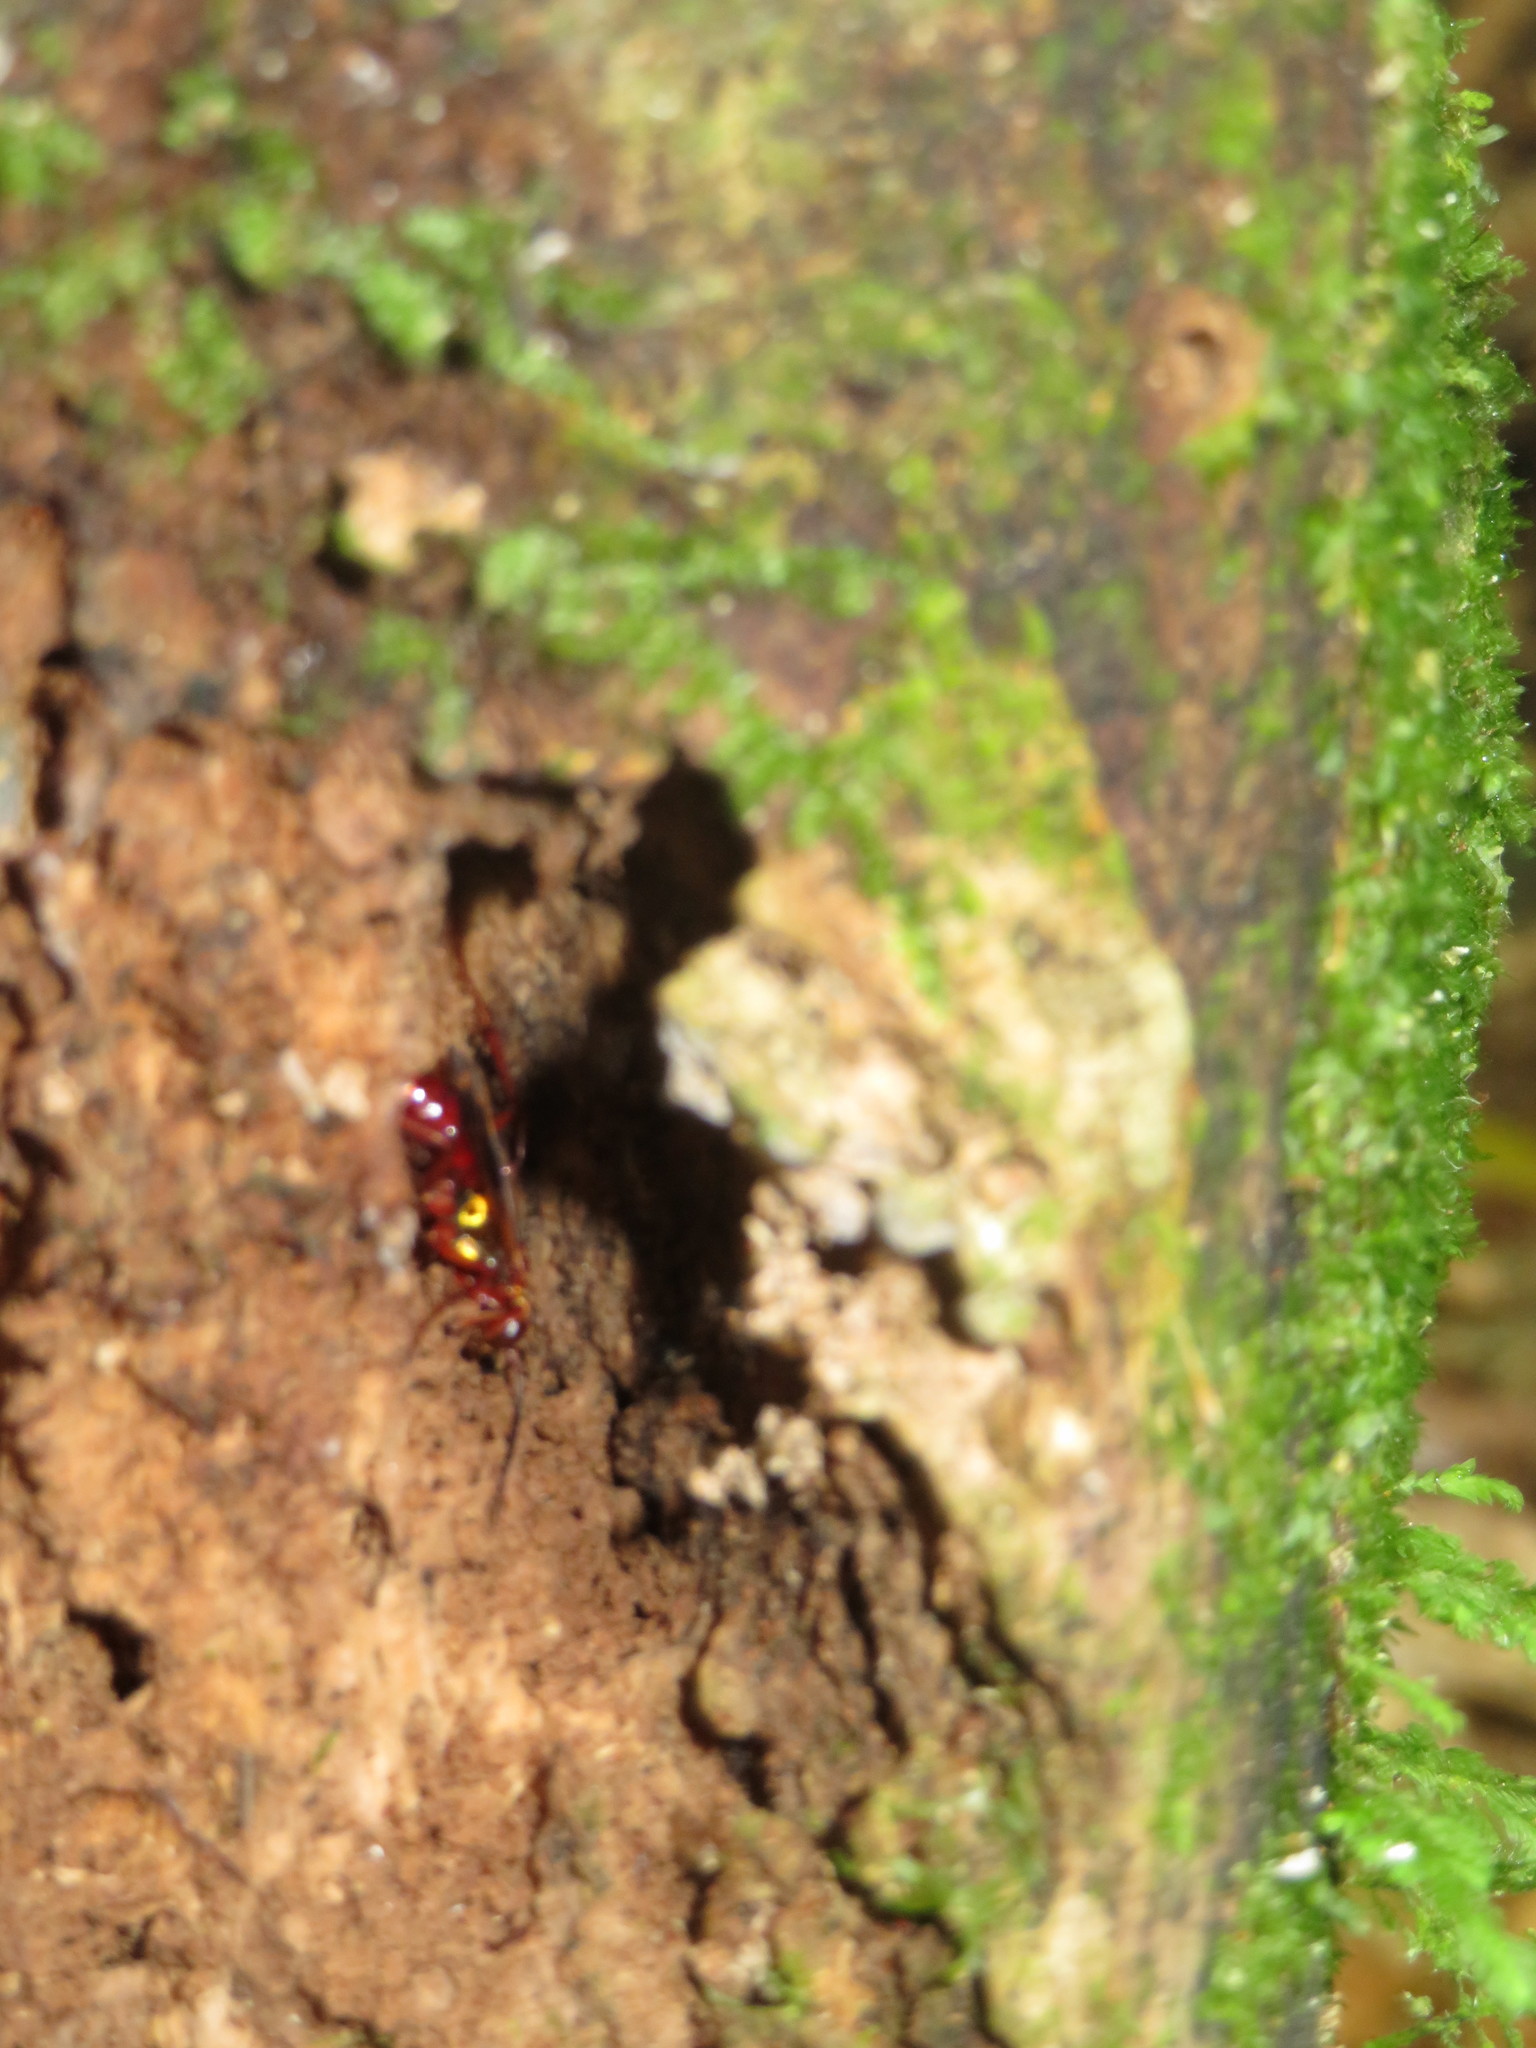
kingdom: Animalia
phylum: Arthropoda
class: Insecta
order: Hymenoptera
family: Pompilidae
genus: Sphictostethus
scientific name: Sphictostethus nitidus
